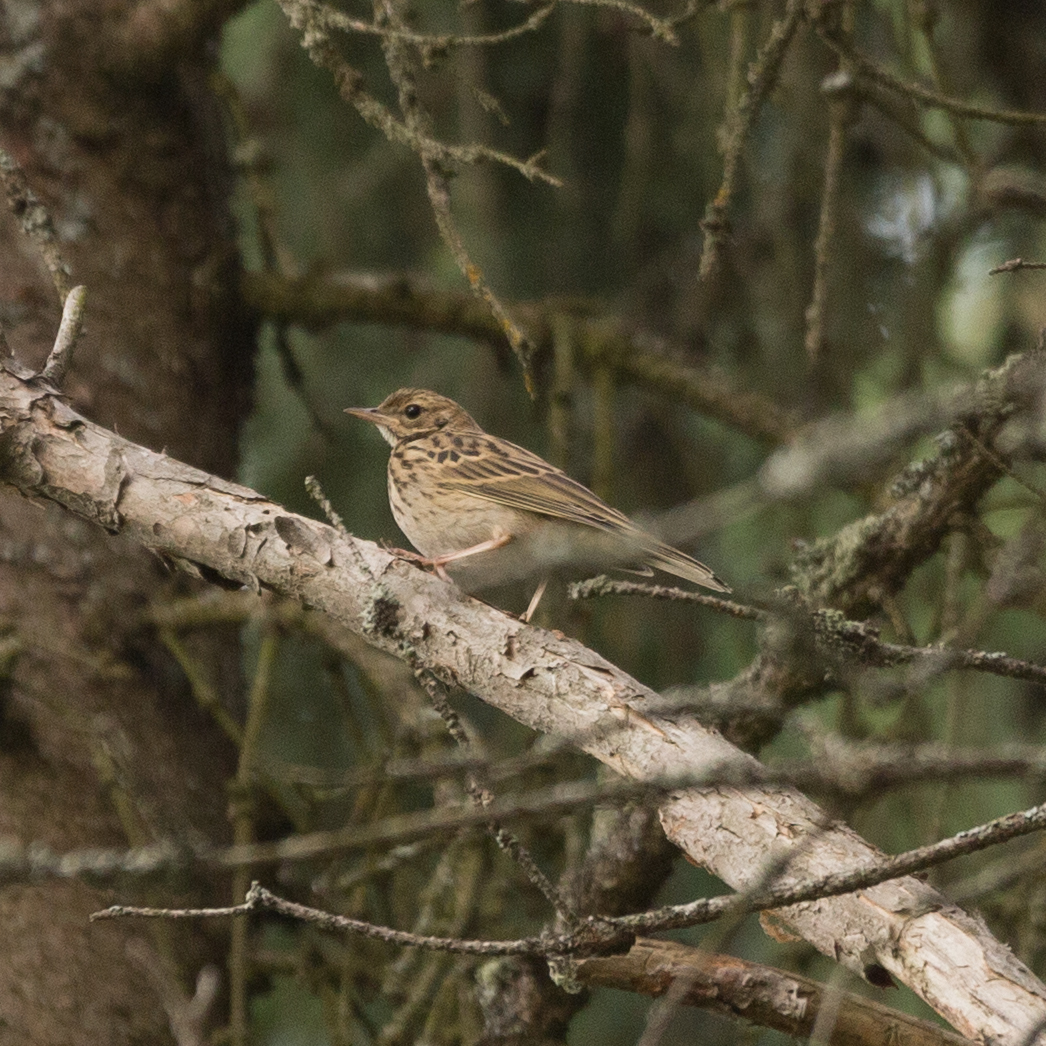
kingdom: Animalia
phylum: Chordata
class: Aves
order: Passeriformes
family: Motacillidae
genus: Anthus
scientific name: Anthus trivialis
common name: Tree pipit
